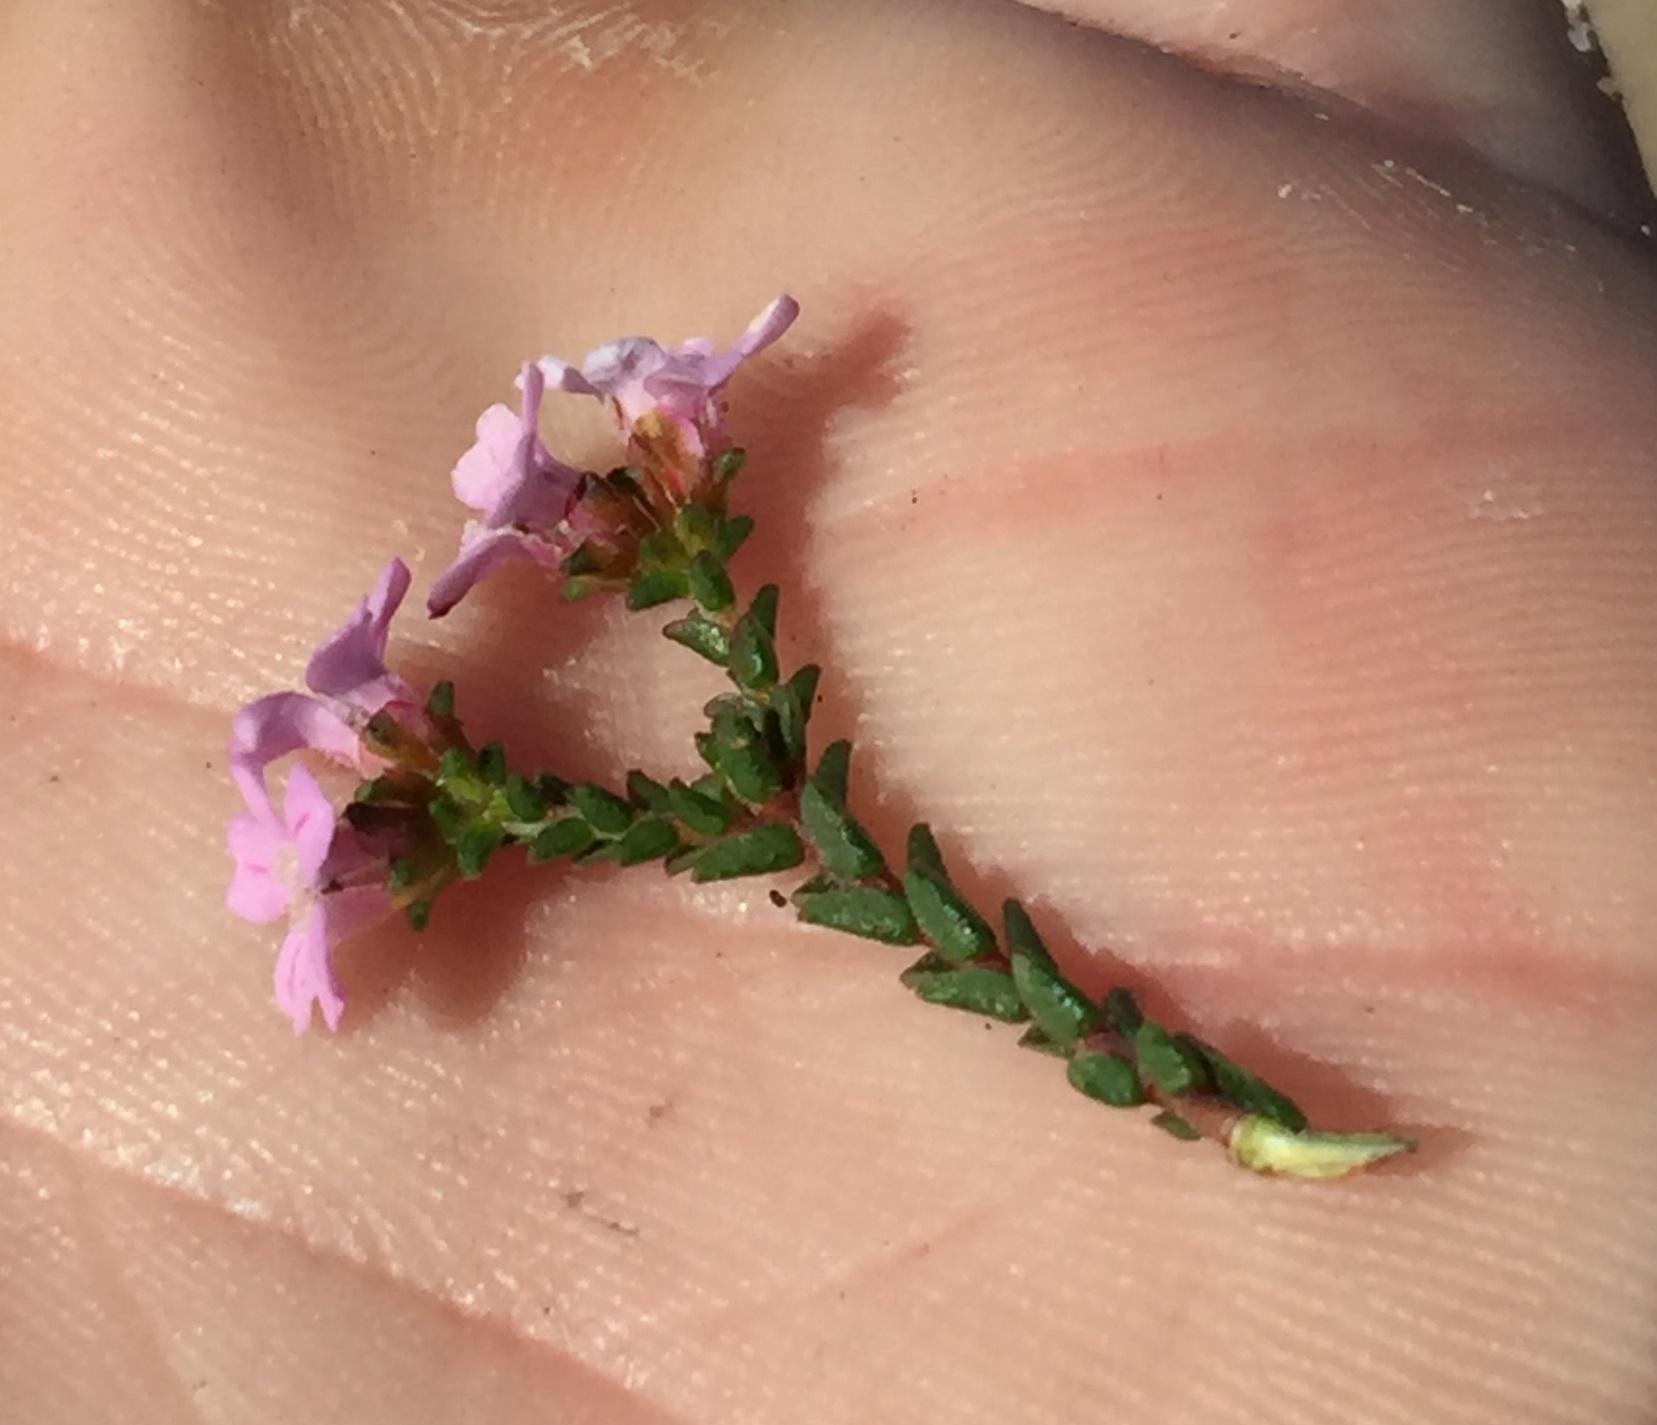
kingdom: Plantae
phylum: Tracheophyta
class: Magnoliopsida
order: Sapindales
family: Rutaceae
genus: Euchaetis
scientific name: Euchaetis albertiniana
